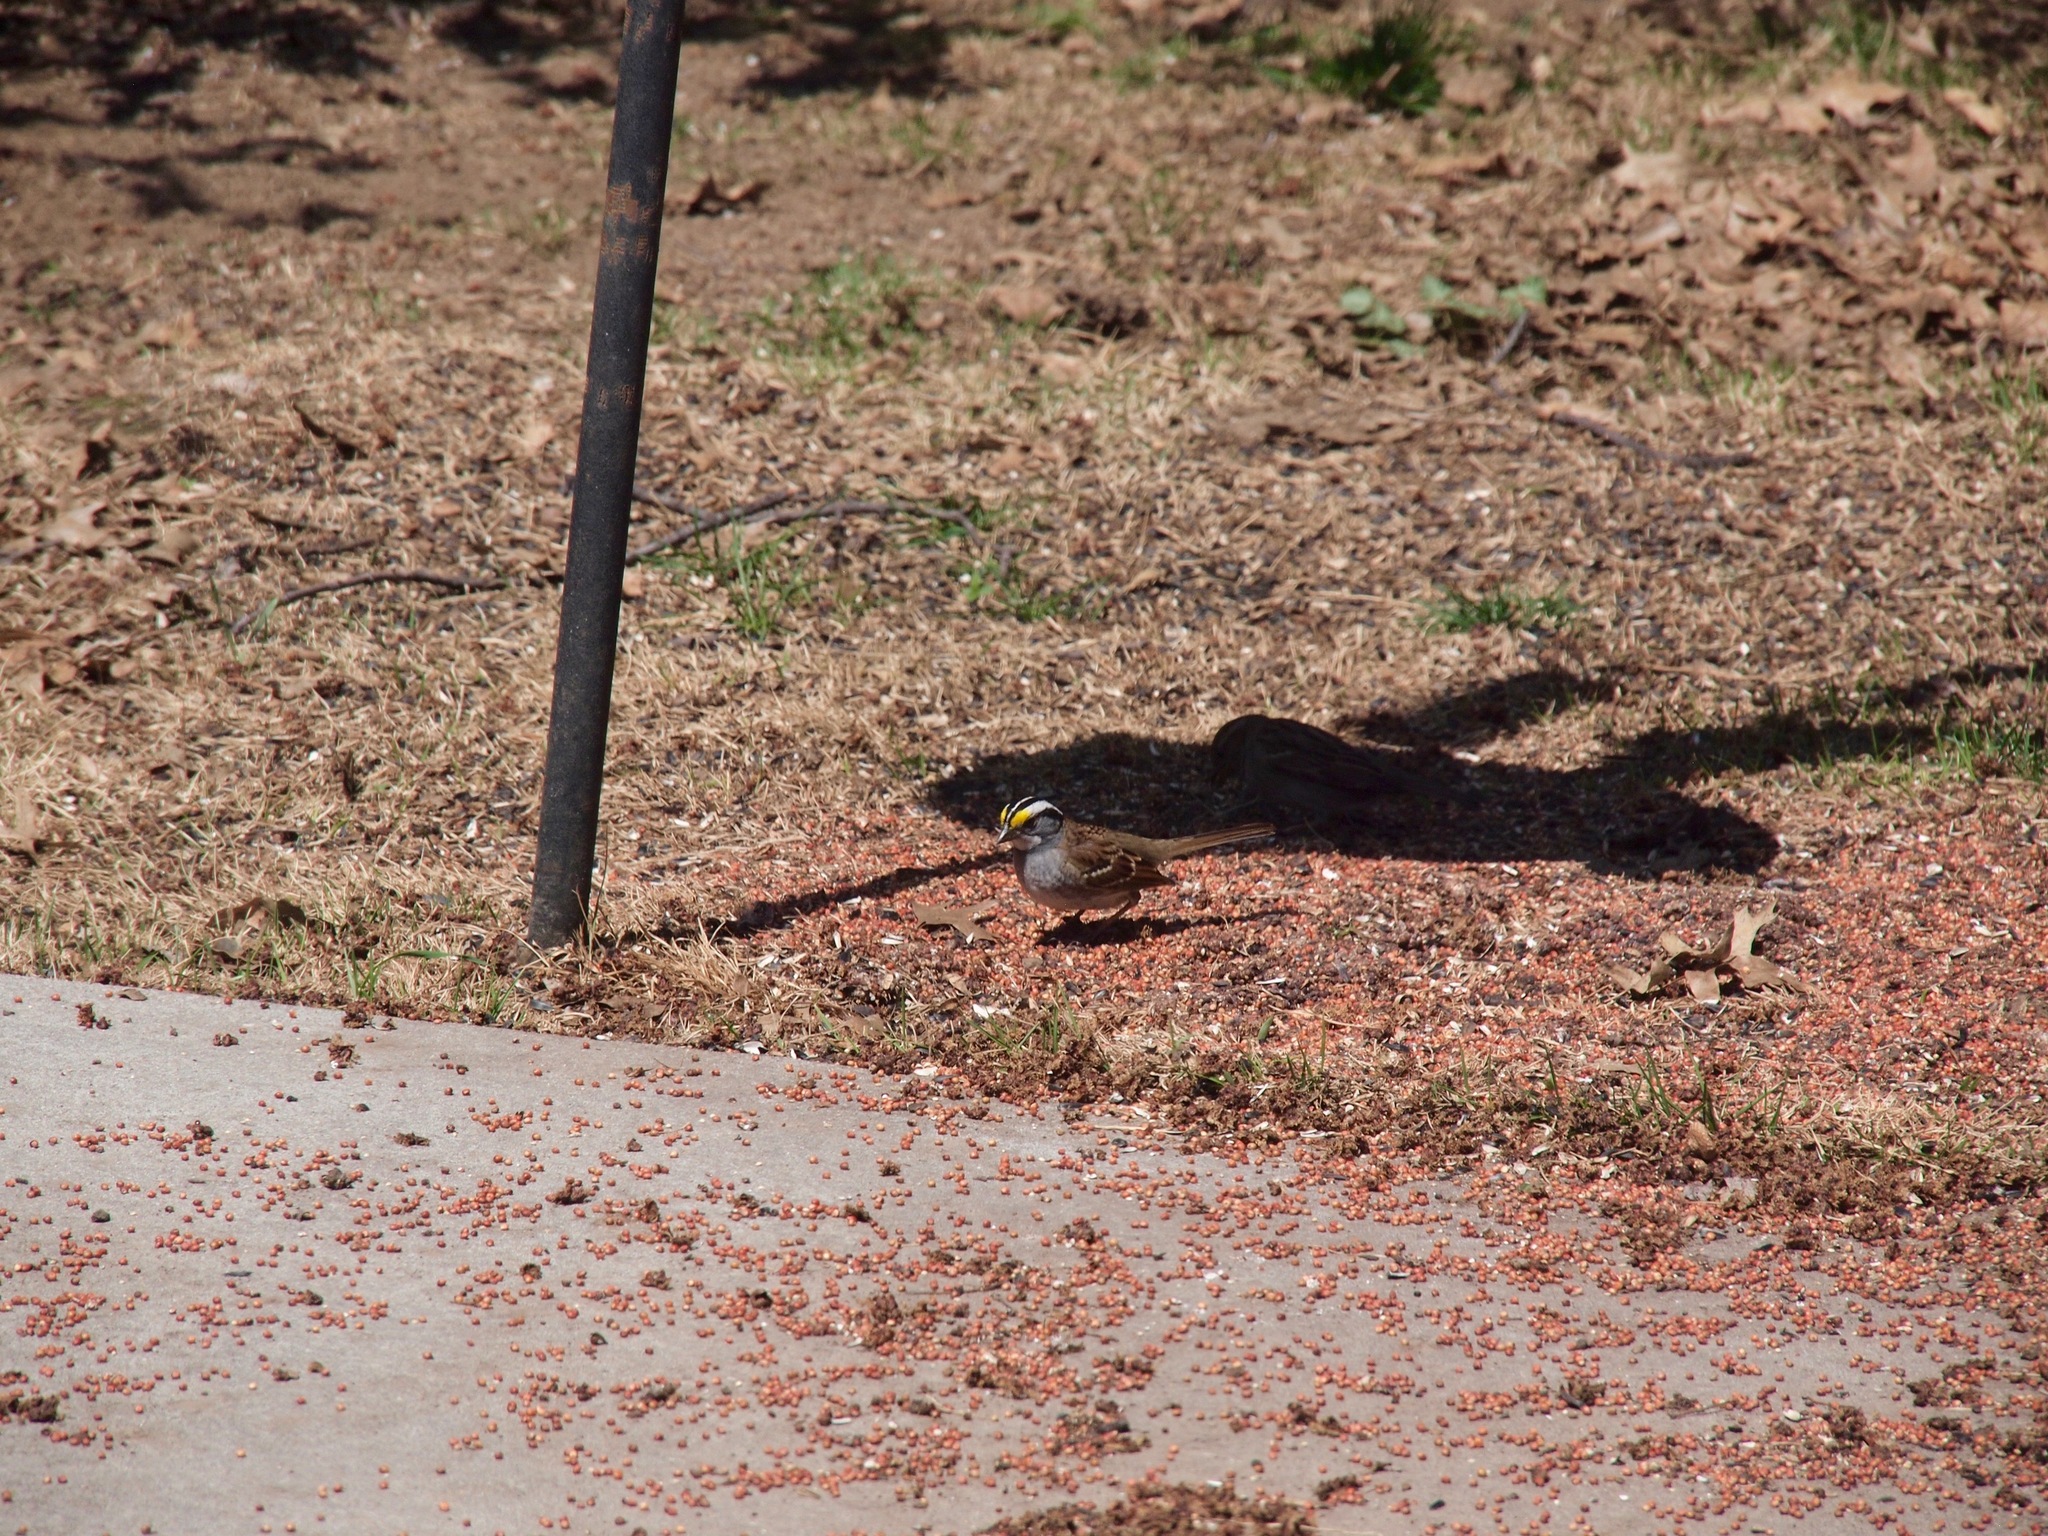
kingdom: Animalia
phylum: Chordata
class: Aves
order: Passeriformes
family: Passerellidae
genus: Zonotrichia
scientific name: Zonotrichia albicollis
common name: White-throated sparrow
